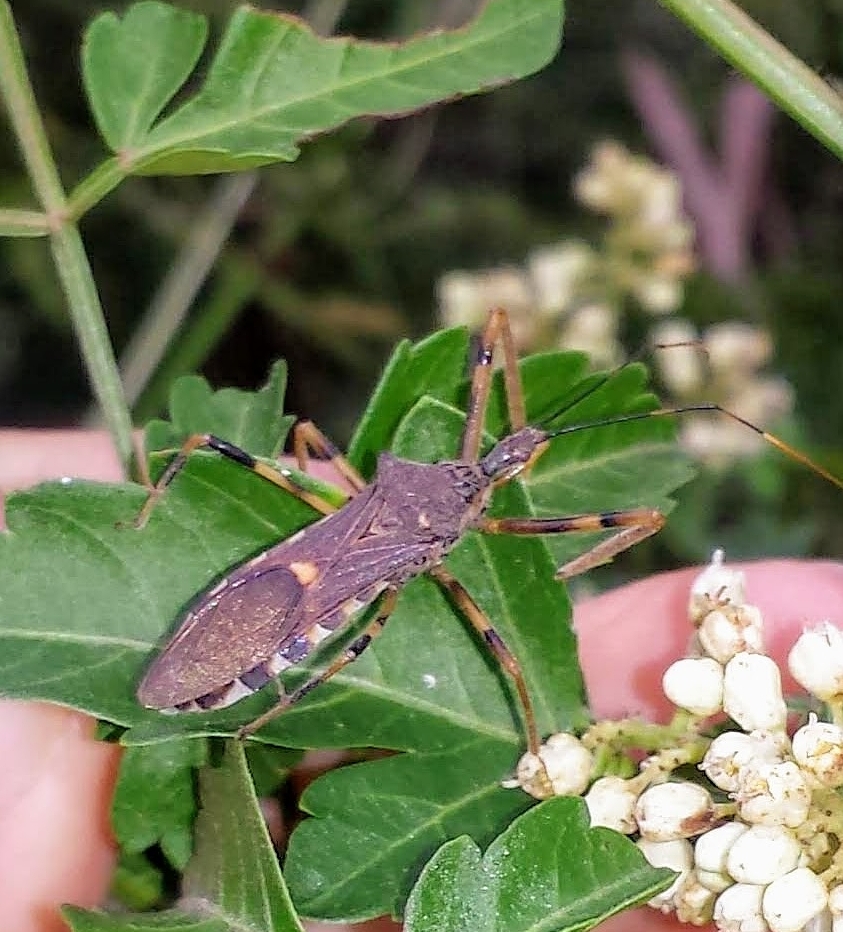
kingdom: Animalia
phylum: Arthropoda
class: Insecta
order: Hemiptera
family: Reduviidae
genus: Zelus
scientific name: Zelus janus
